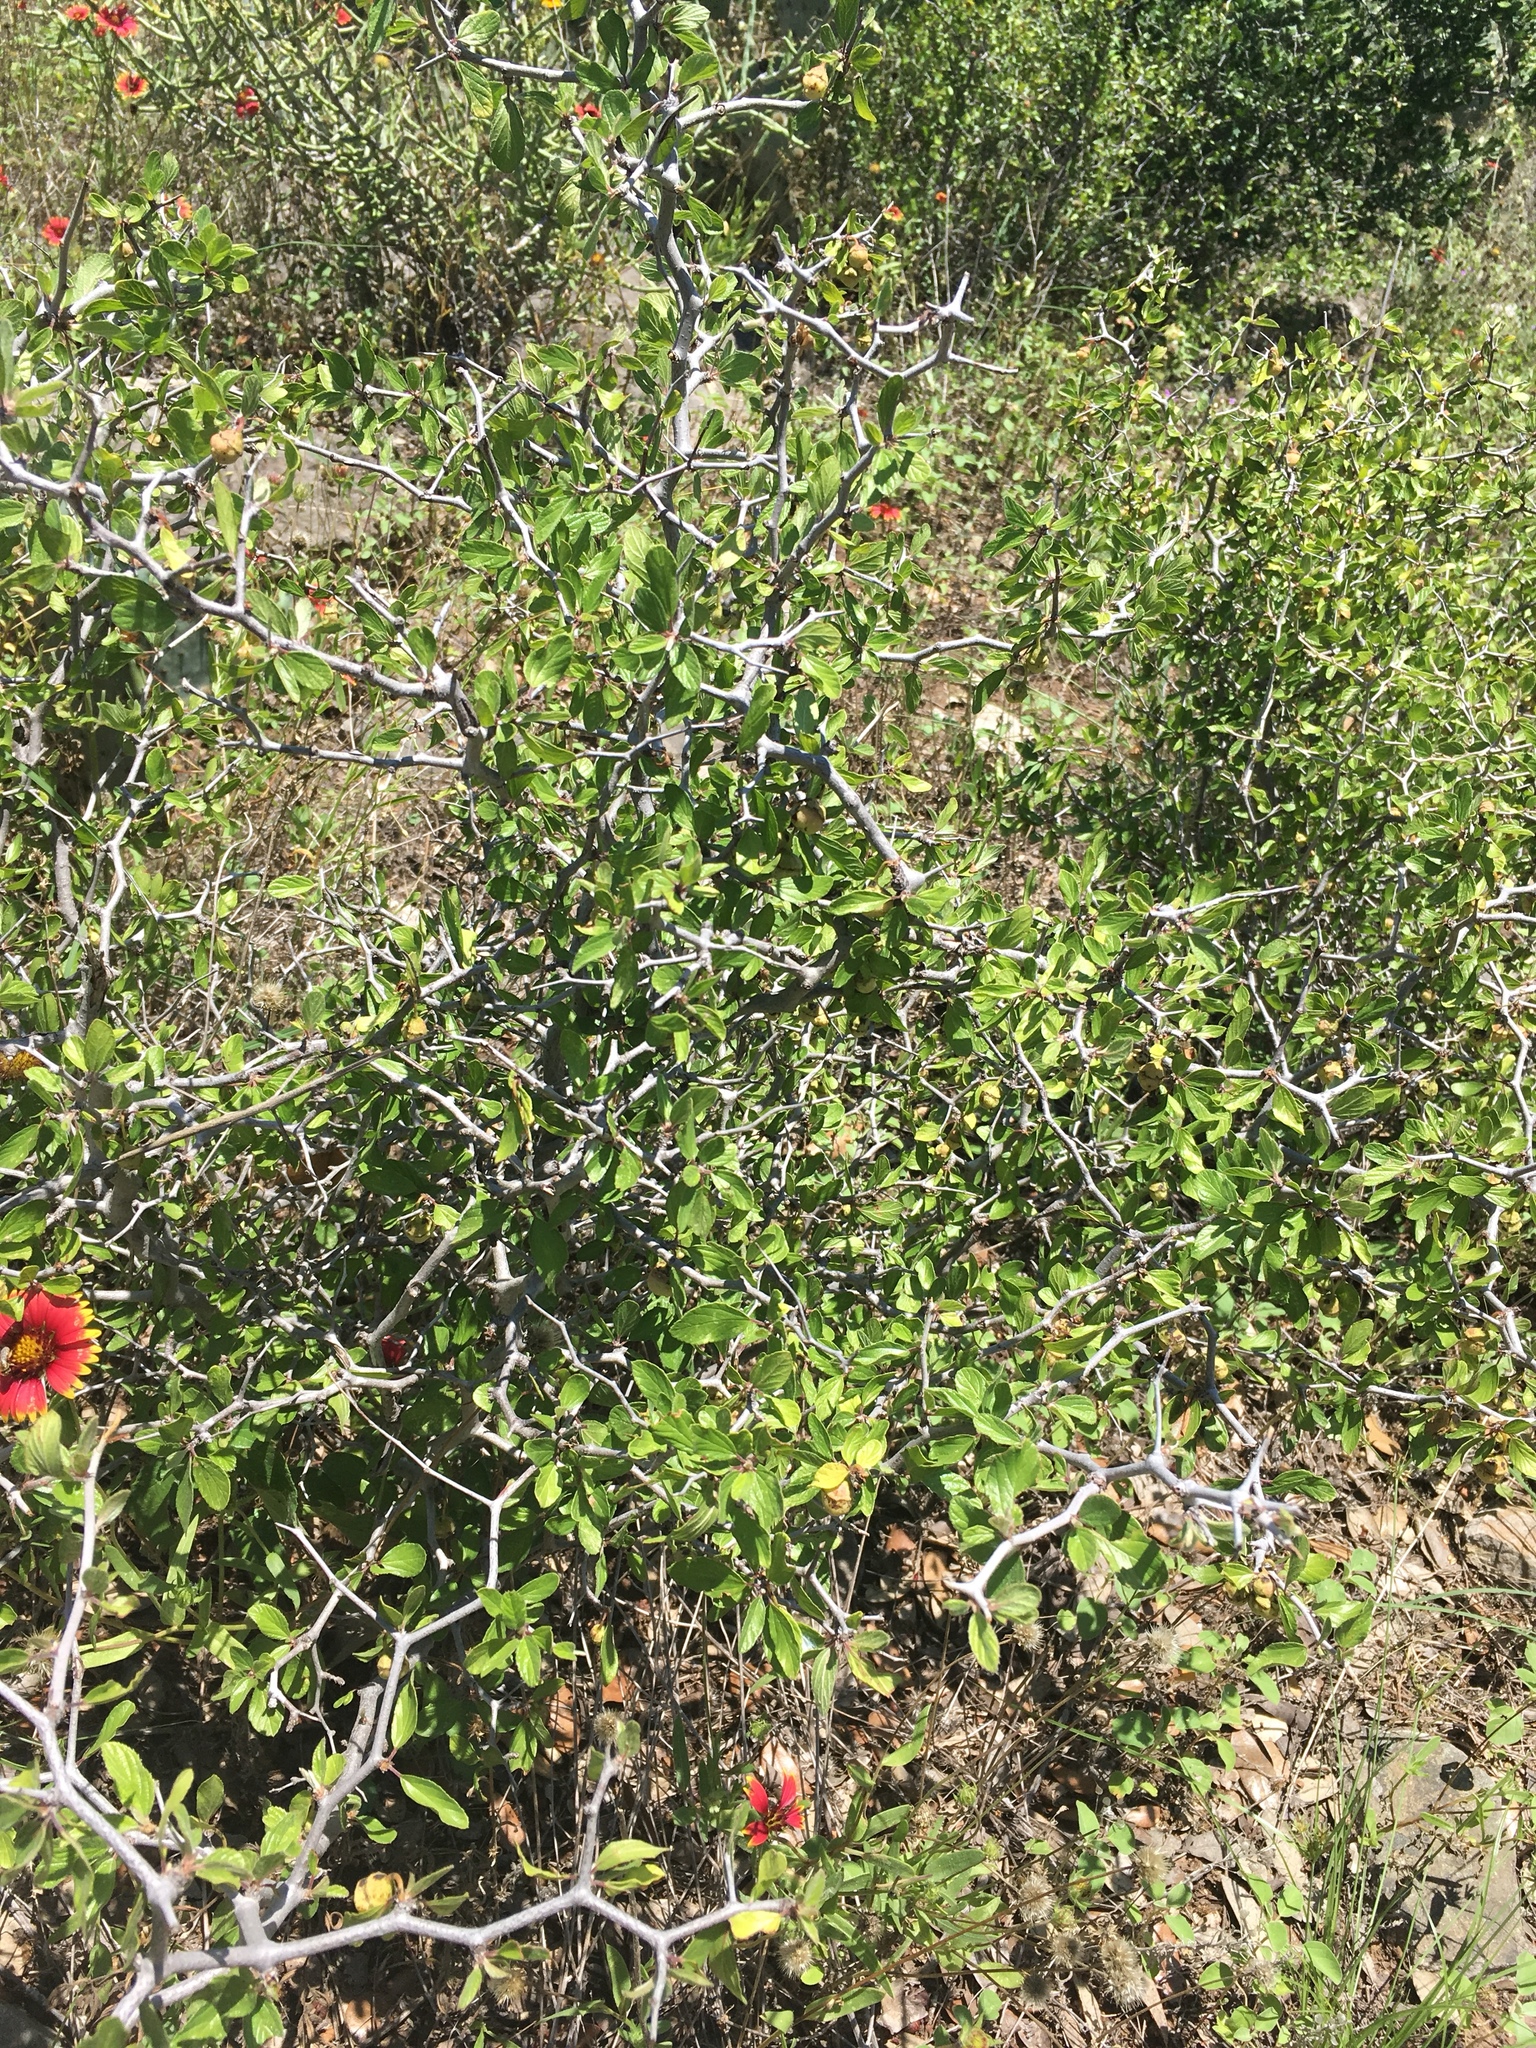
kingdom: Plantae
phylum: Tracheophyta
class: Magnoliopsida
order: Rosales
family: Rhamnaceae
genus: Colubrina
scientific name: Colubrina texensis
